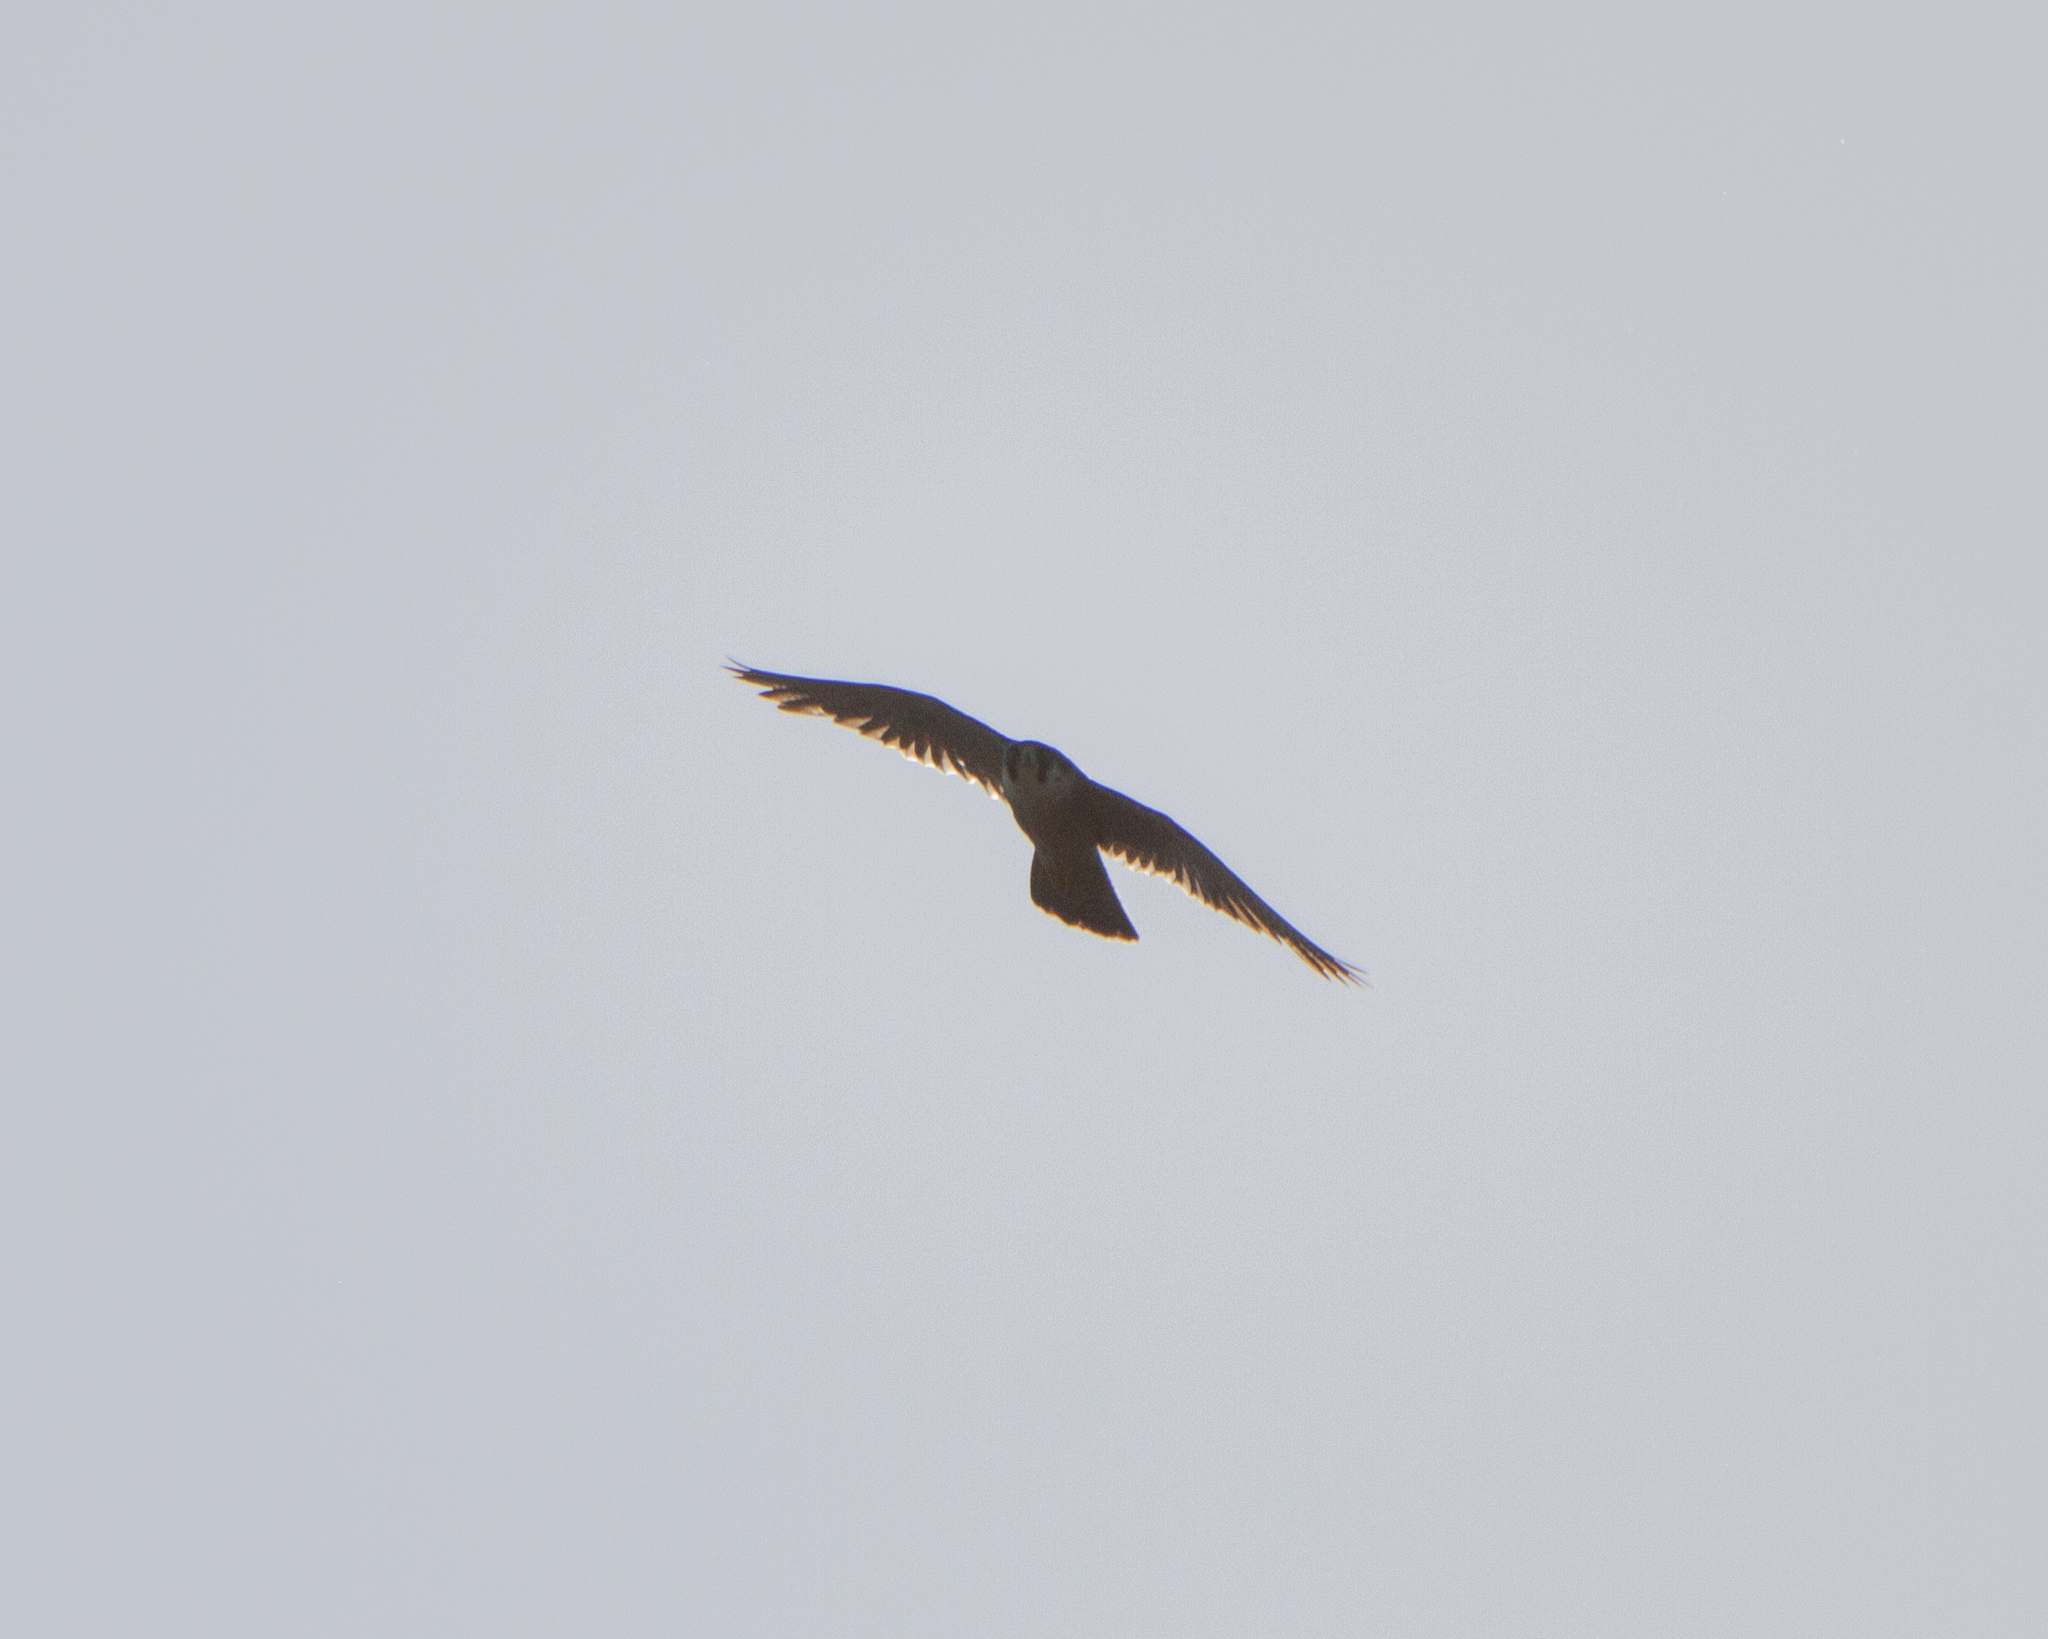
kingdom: Animalia
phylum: Chordata
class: Aves
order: Falconiformes
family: Falconidae
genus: Falco
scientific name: Falco peregrinus
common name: Peregrine falcon
